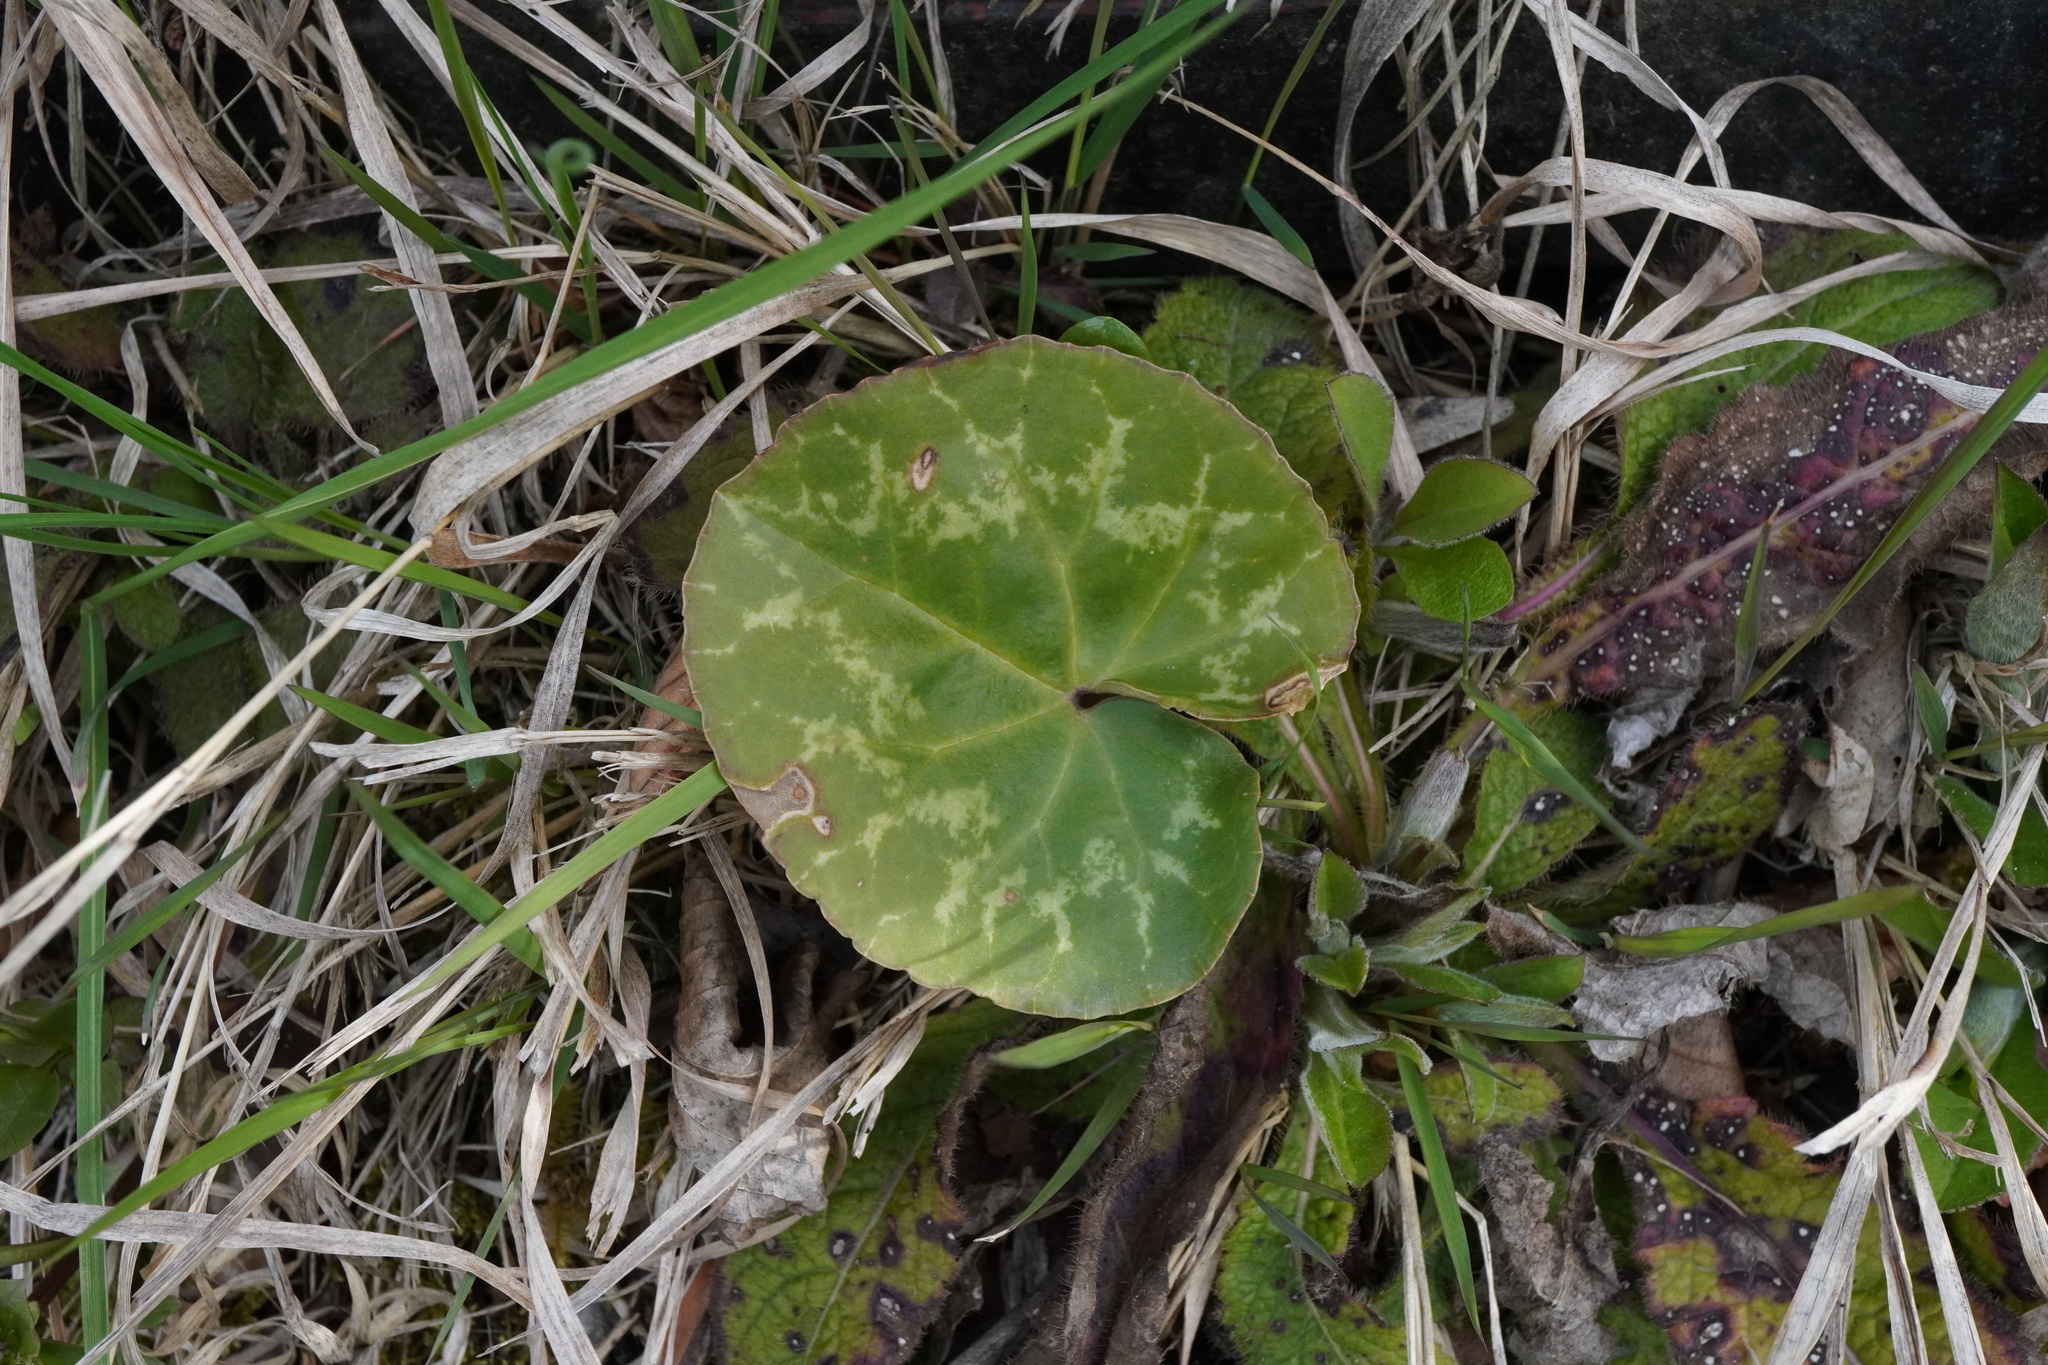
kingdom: Plantae
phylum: Tracheophyta
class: Magnoliopsida
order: Ericales
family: Primulaceae
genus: Cyclamen
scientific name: Cyclamen purpurascens
